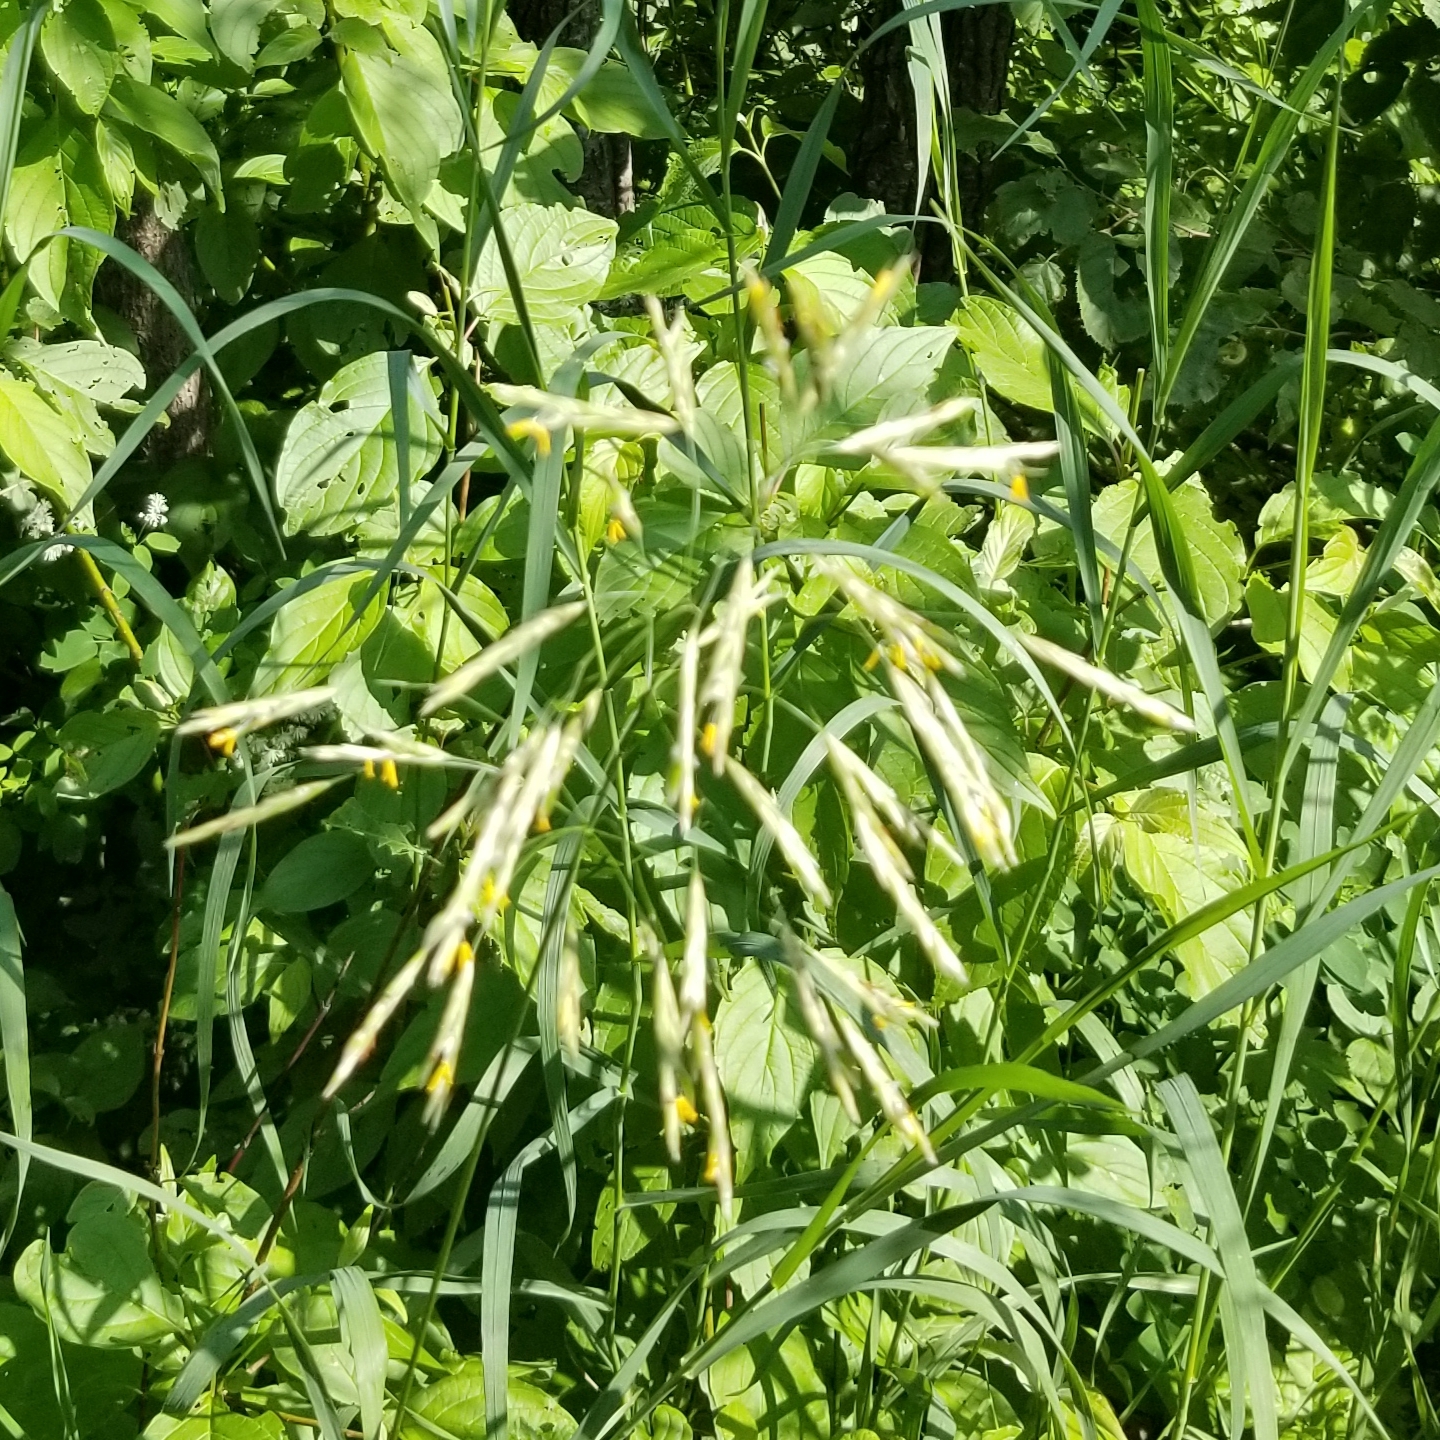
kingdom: Plantae
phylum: Tracheophyta
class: Liliopsida
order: Poales
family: Poaceae
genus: Bromus
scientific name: Bromus inermis
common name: Smooth brome
